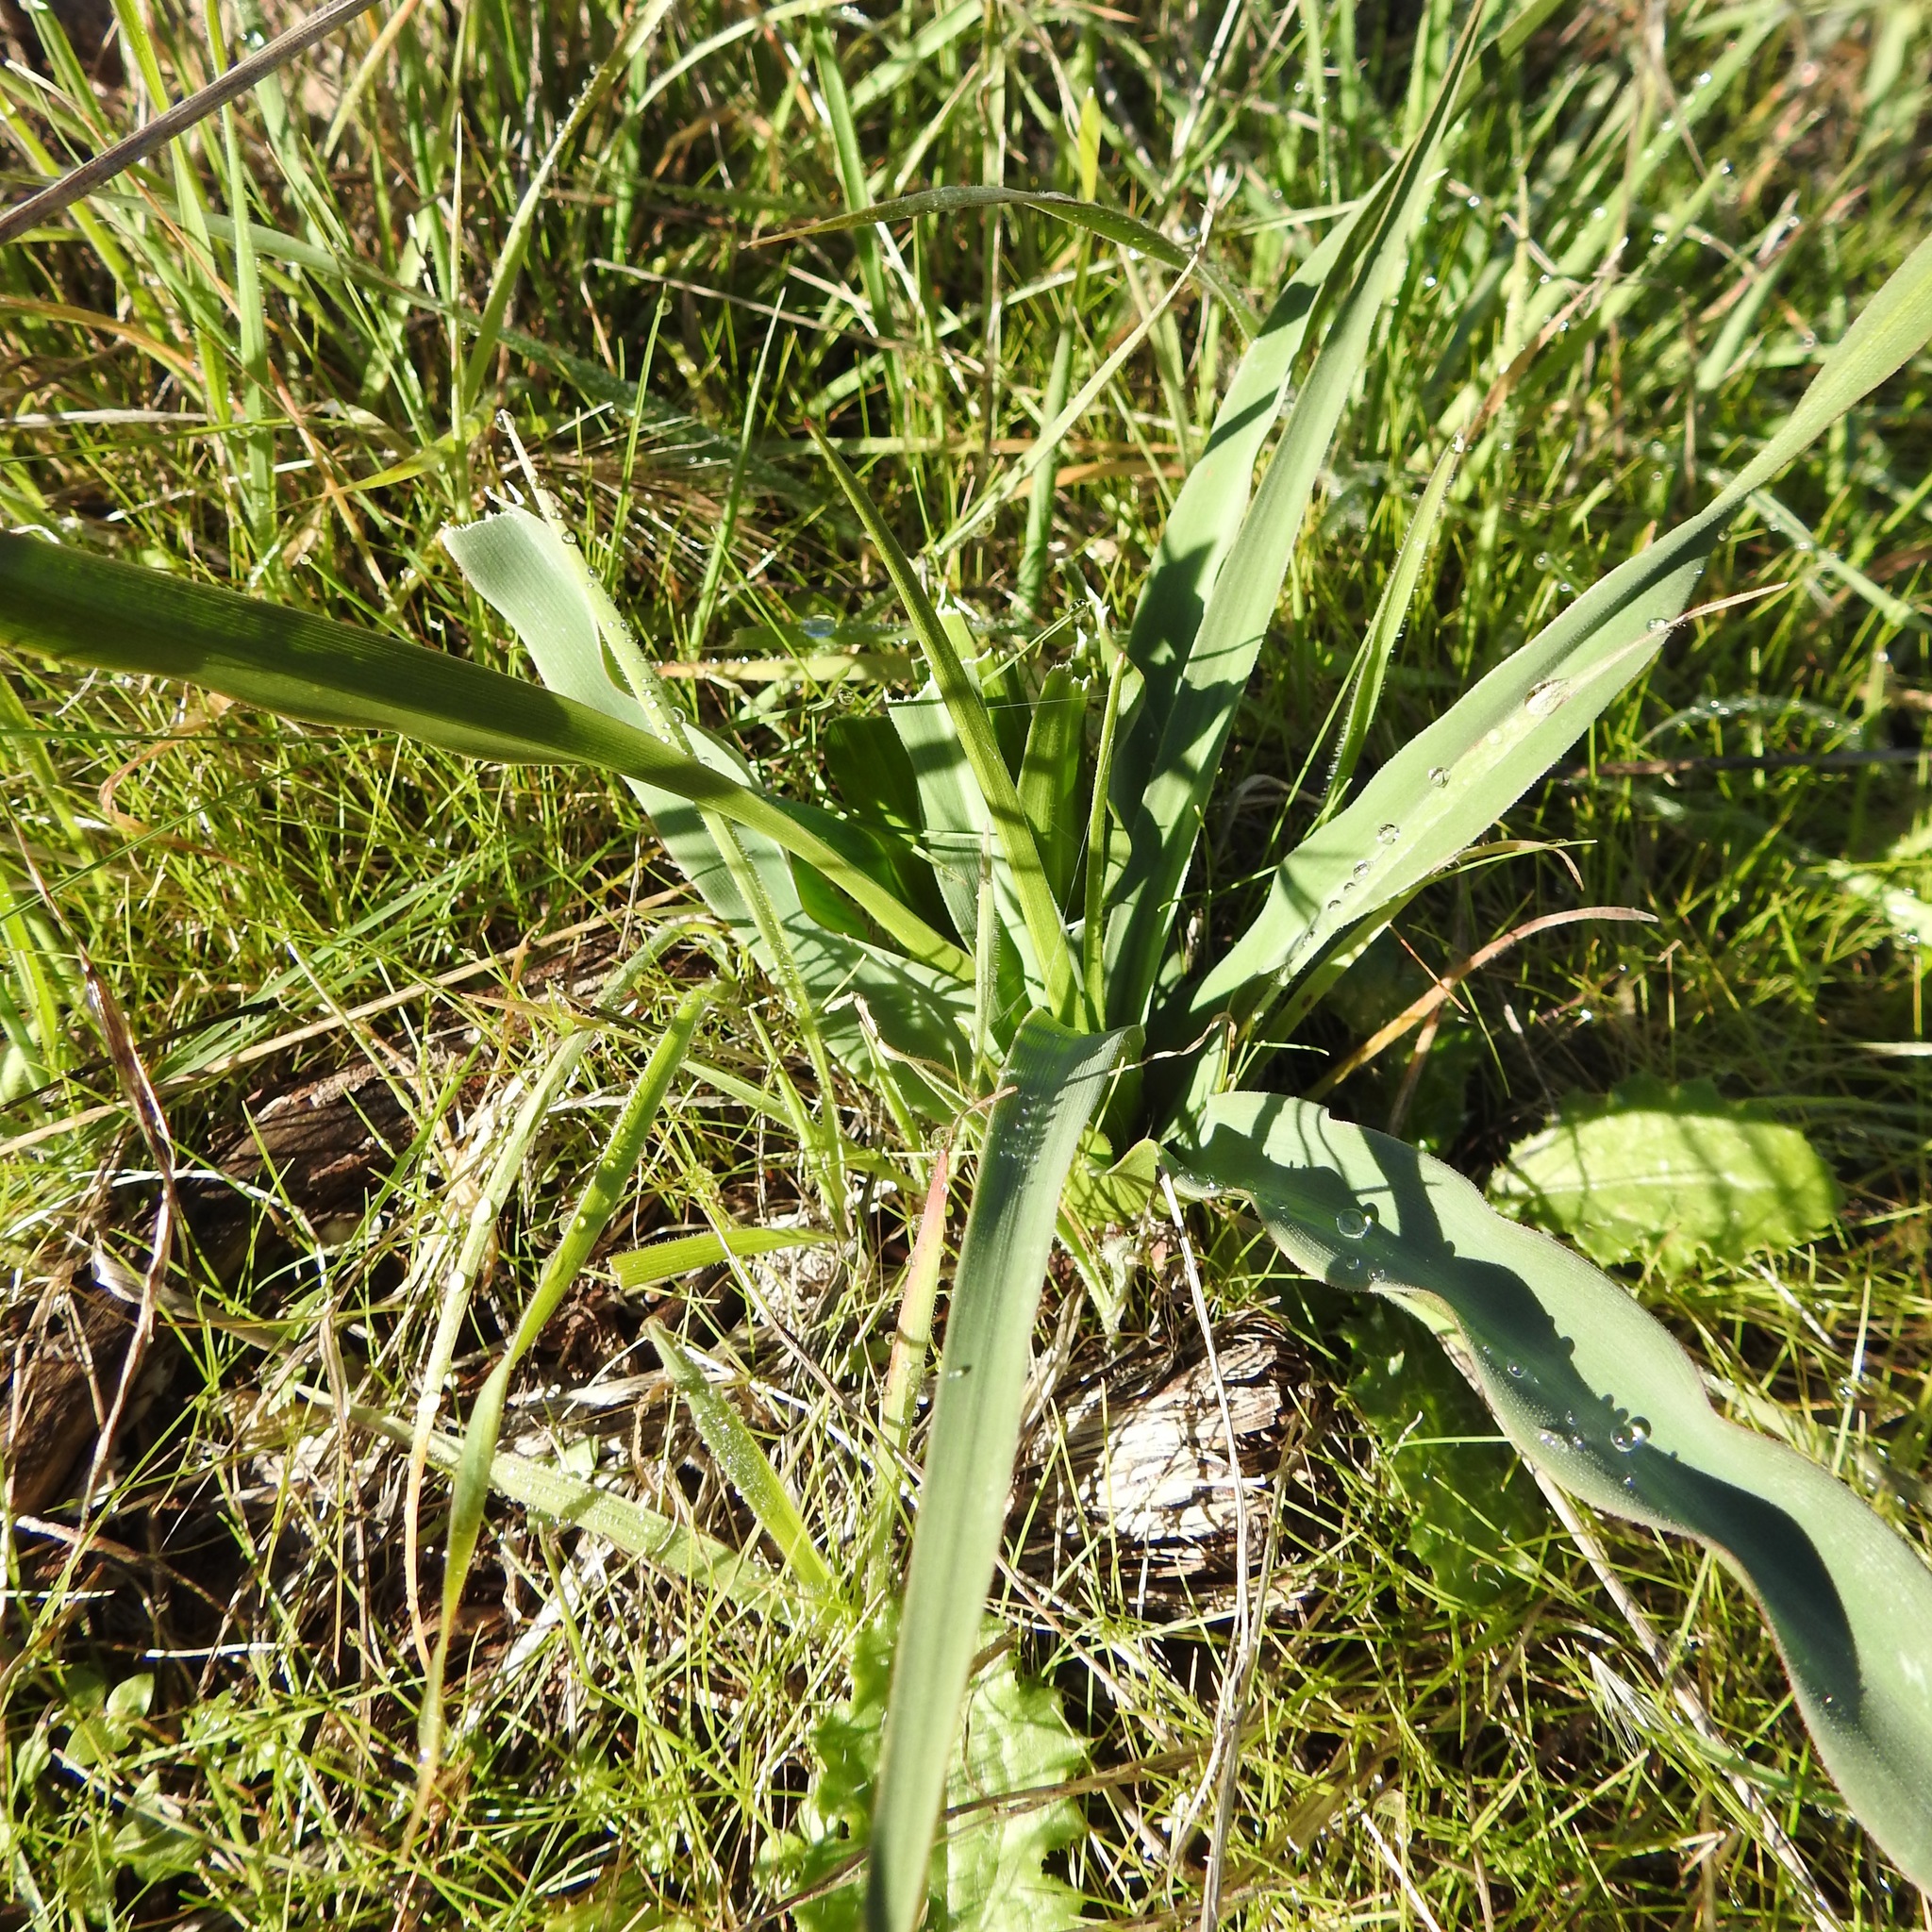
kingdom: Plantae
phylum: Tracheophyta
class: Liliopsida
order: Asparagales
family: Asparagaceae
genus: Chlorogalum
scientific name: Chlorogalum pomeridianum
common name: Amole
